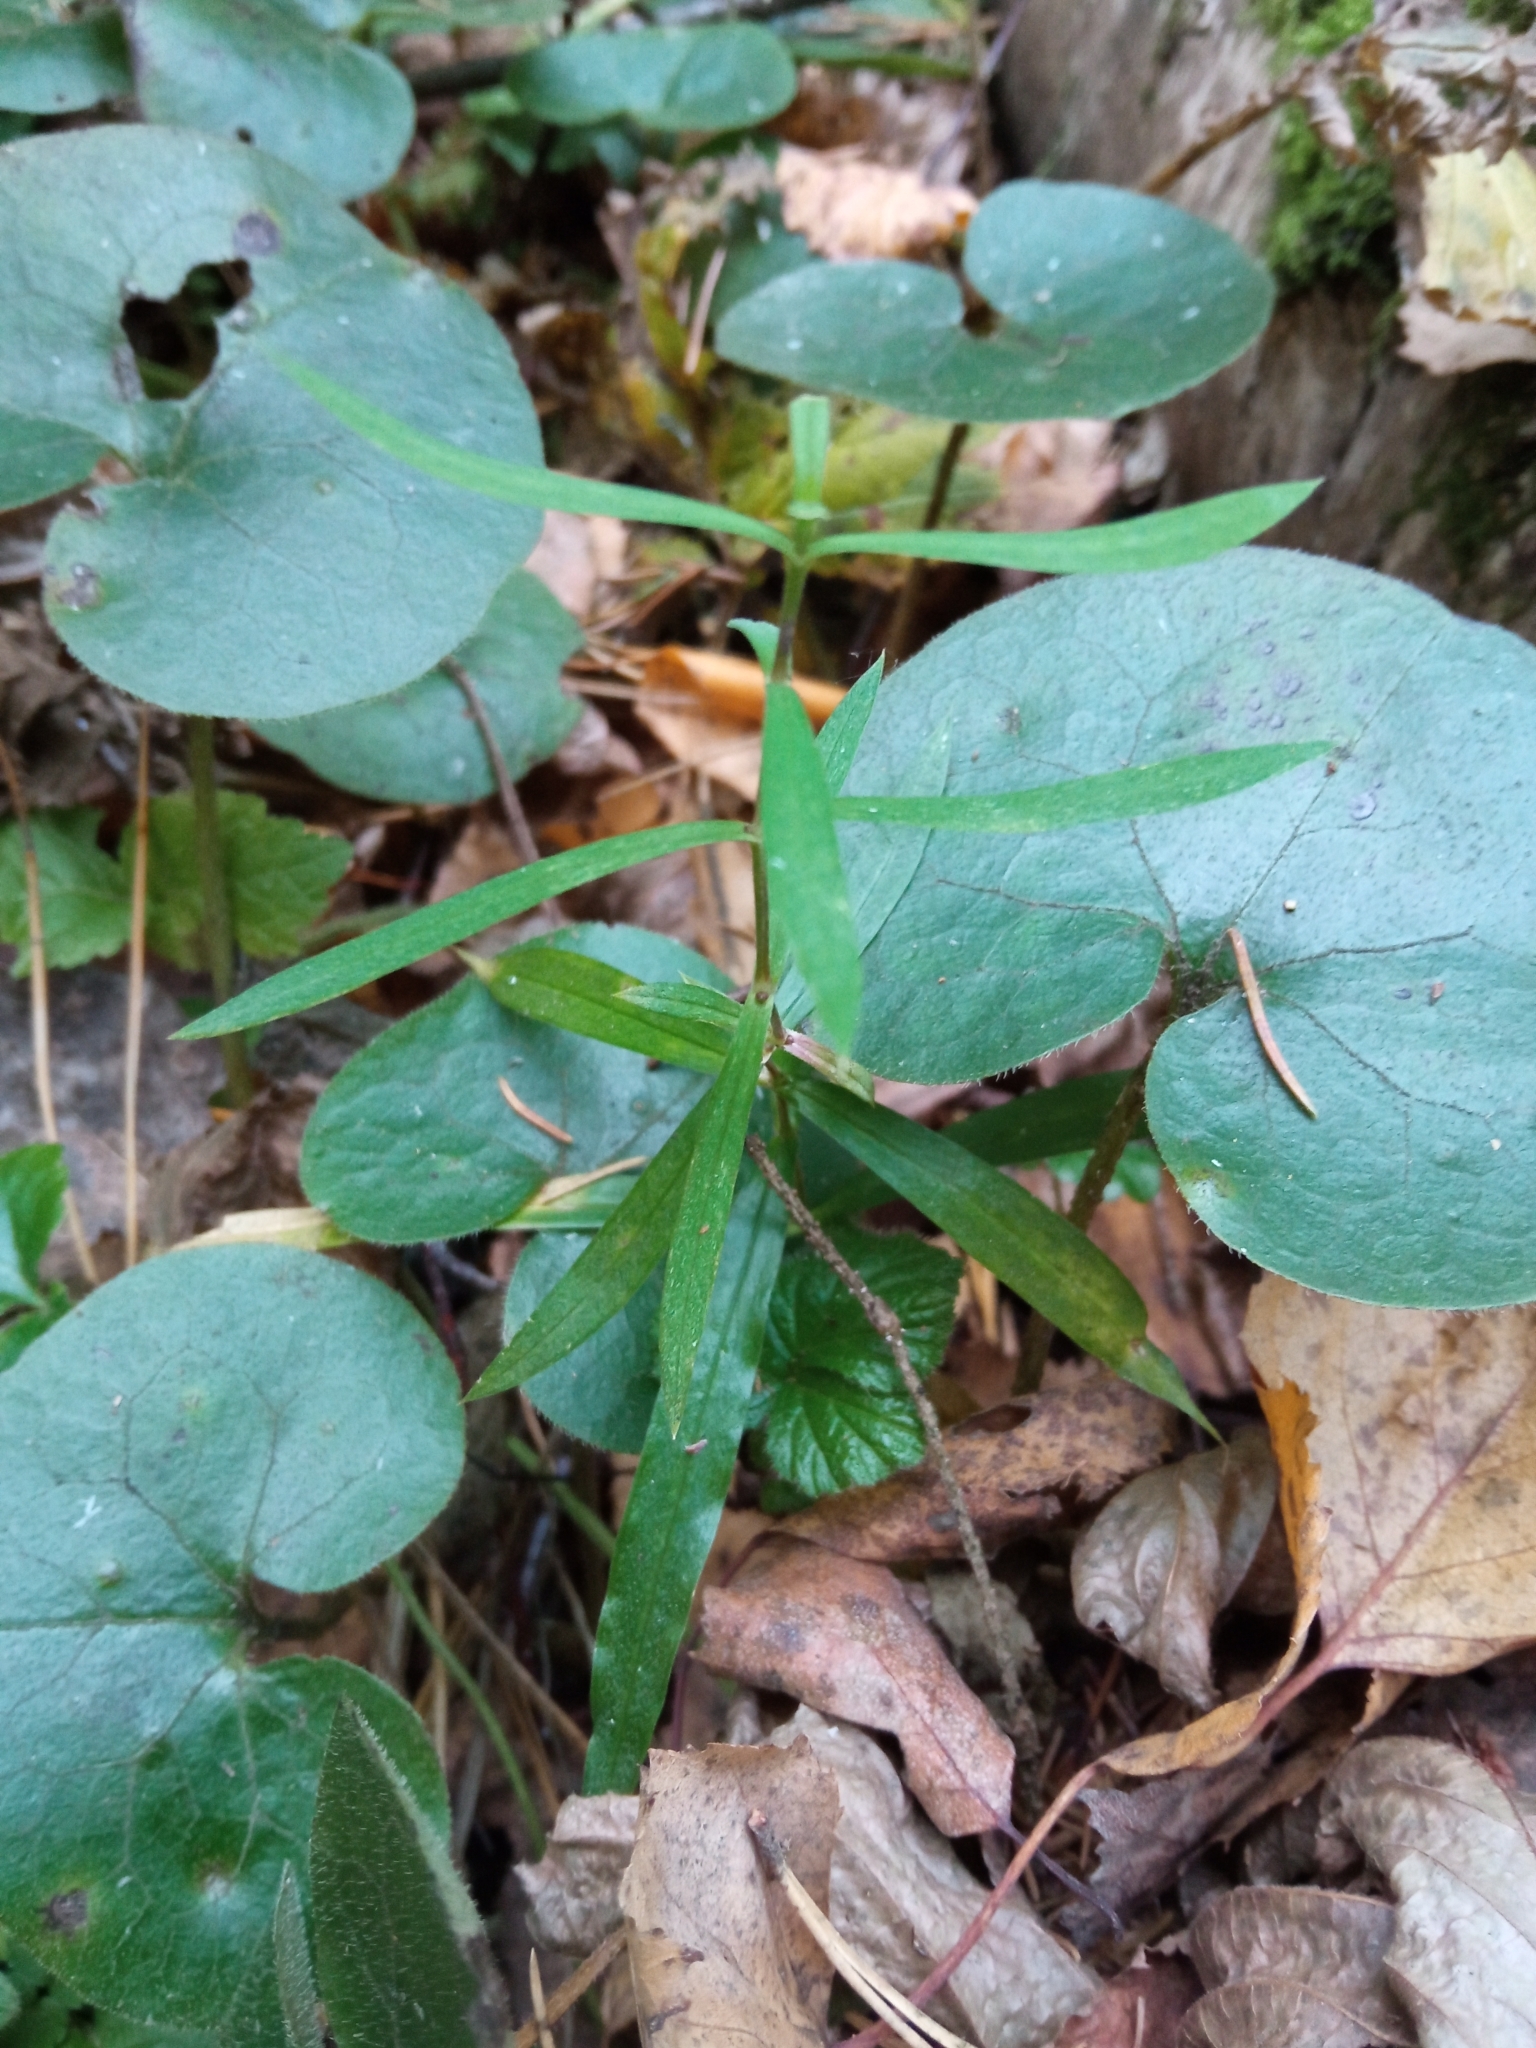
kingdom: Plantae
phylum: Tracheophyta
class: Magnoliopsida
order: Piperales
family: Aristolochiaceae
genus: Asarum
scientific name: Asarum europaeum
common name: Asarabacca
